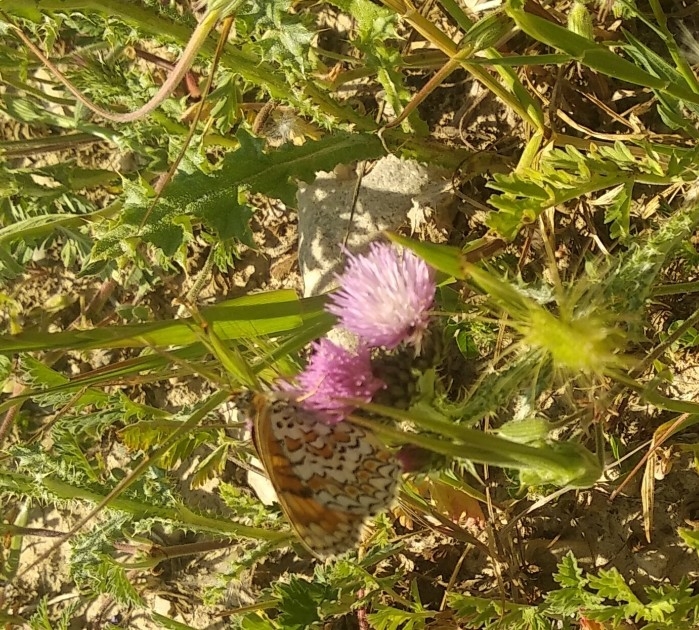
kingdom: Animalia
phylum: Arthropoda
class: Insecta
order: Lepidoptera
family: Nymphalidae
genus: Melitaea
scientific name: Melitaea pseudornata
